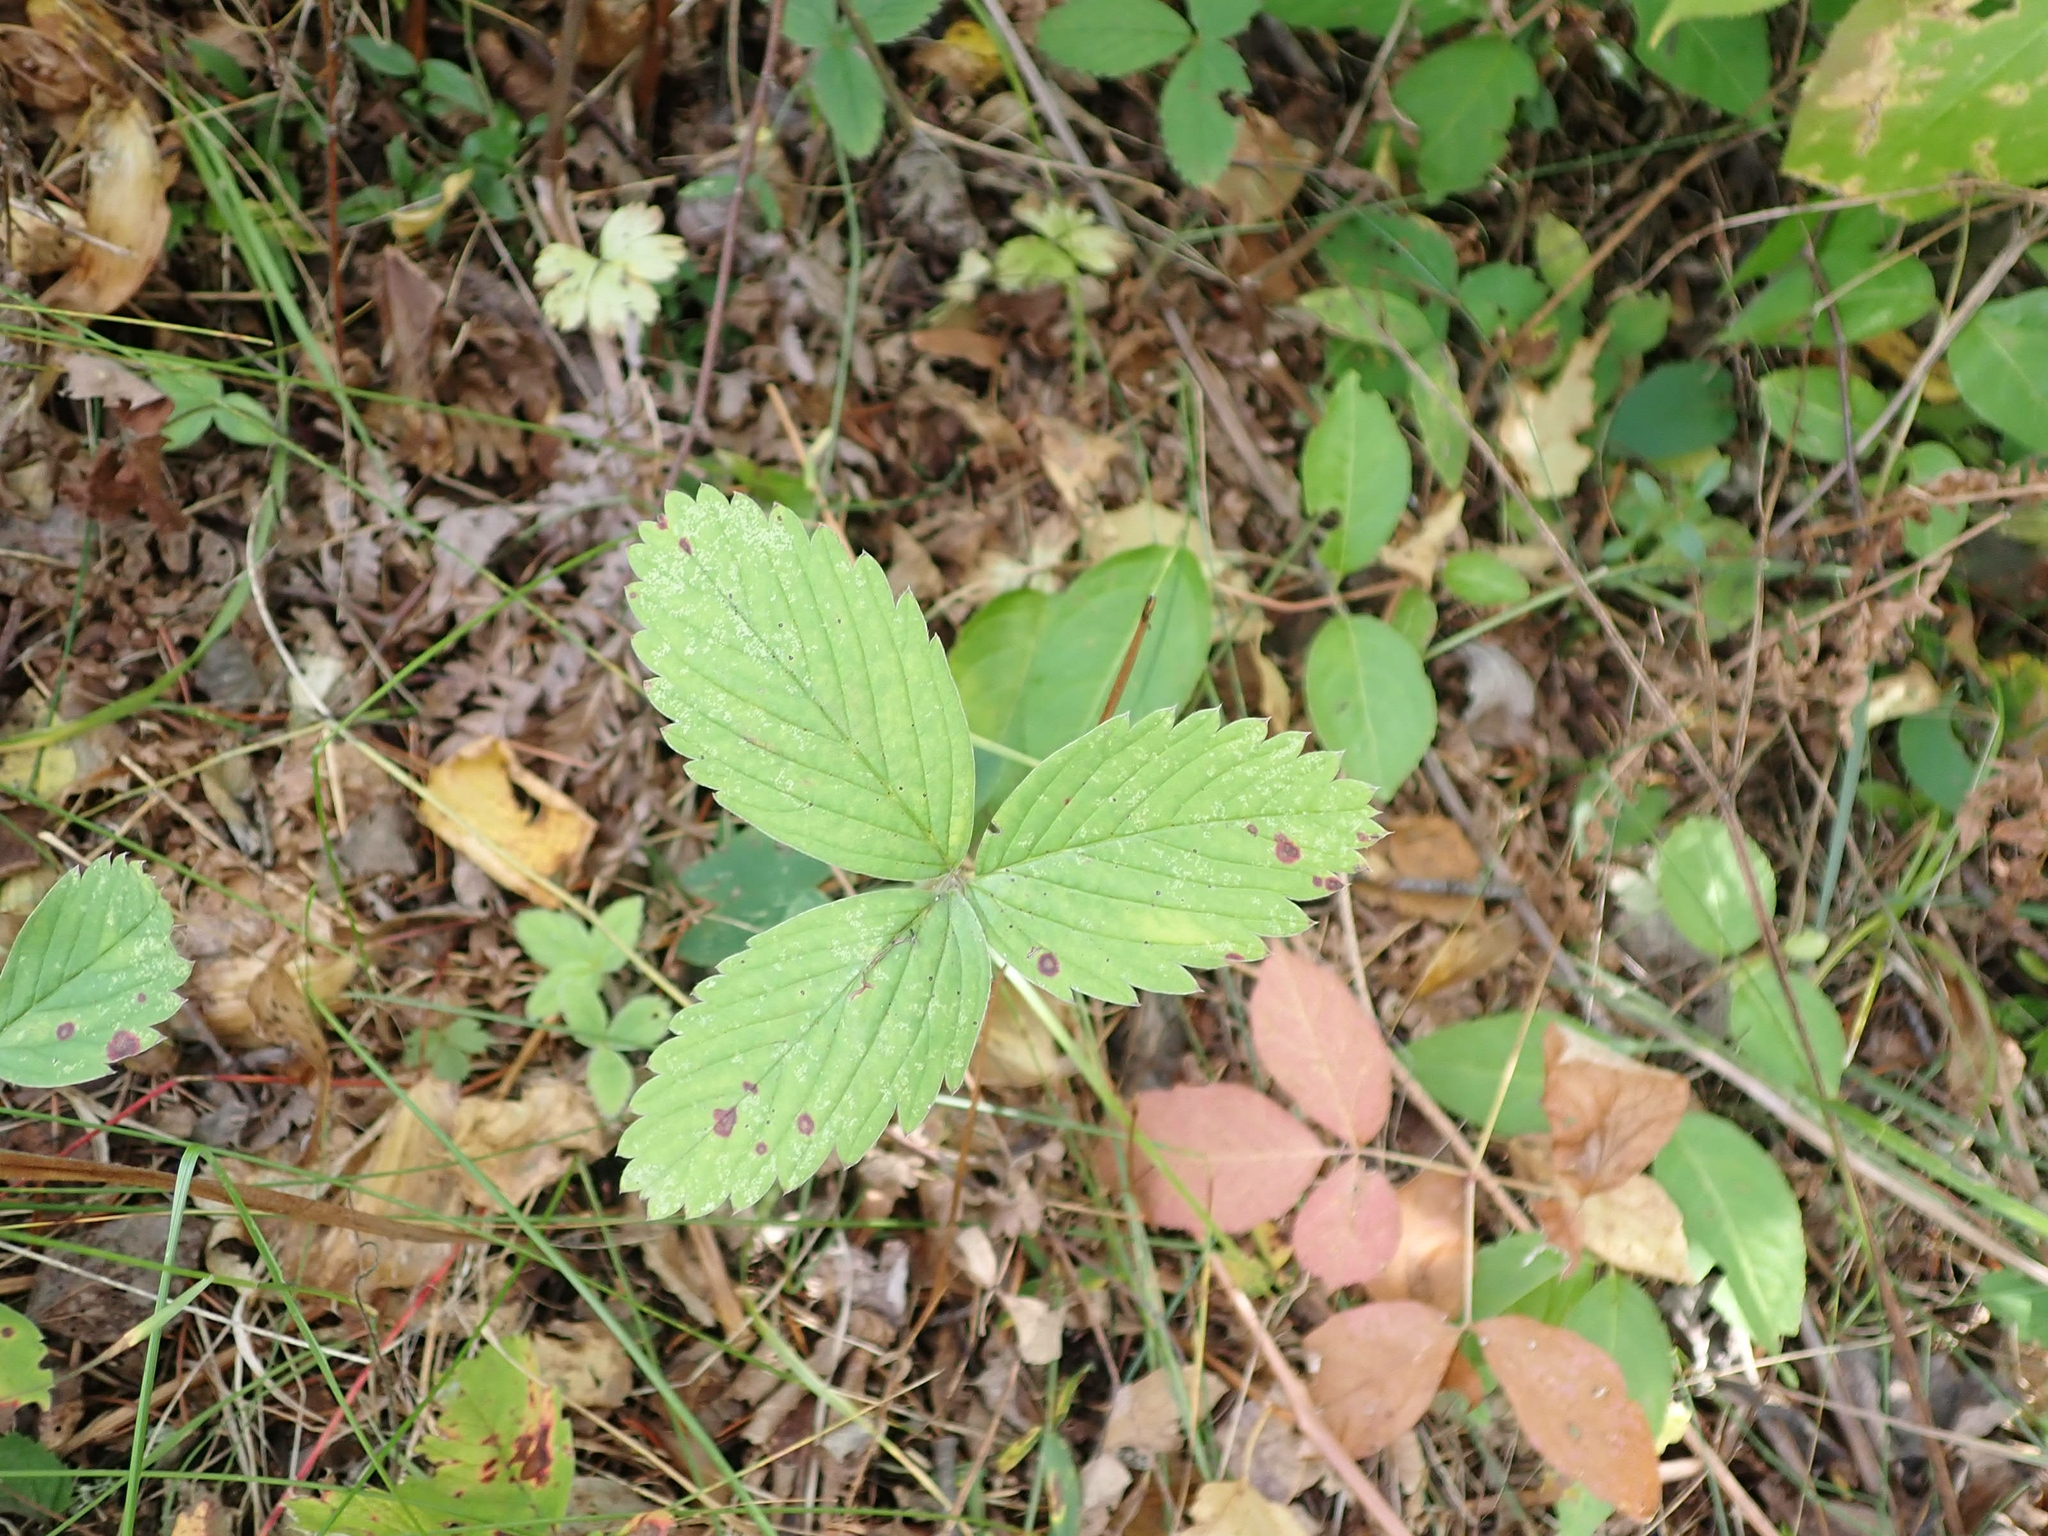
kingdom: Plantae
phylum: Tracheophyta
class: Magnoliopsida
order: Rosales
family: Rosaceae
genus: Fragaria
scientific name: Fragaria virginiana
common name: Thickleaved wild strawberry
